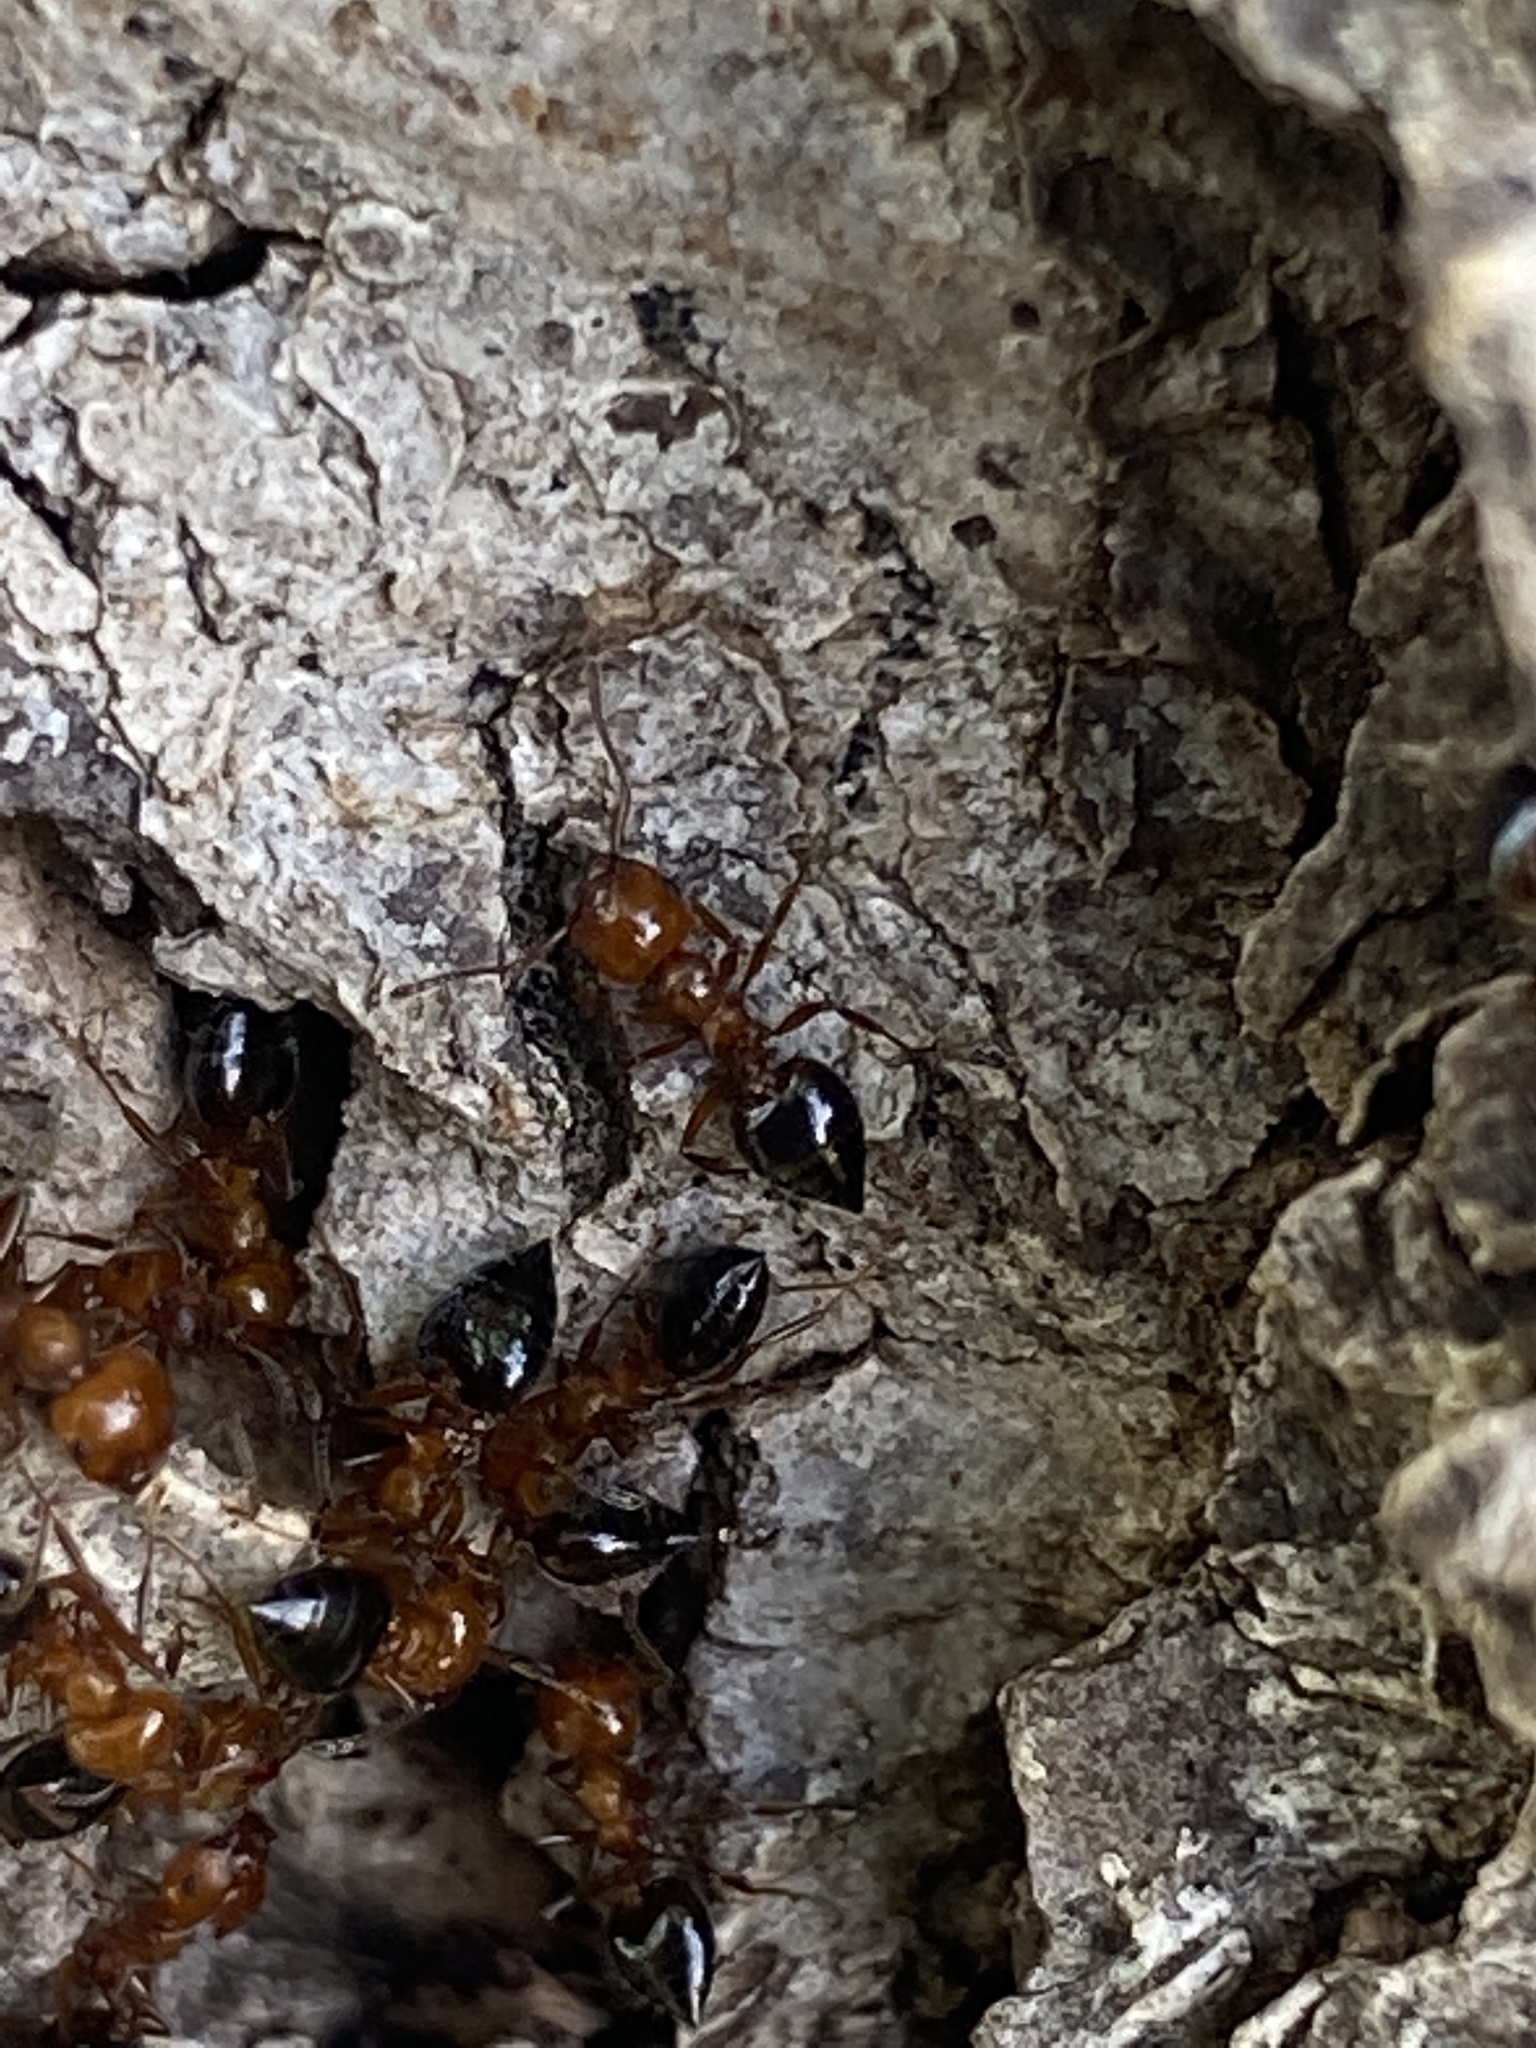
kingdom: Animalia
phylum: Arthropoda
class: Insecta
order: Hymenoptera
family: Formicidae
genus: Crematogaster
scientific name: Crematogaster laeviuscula
